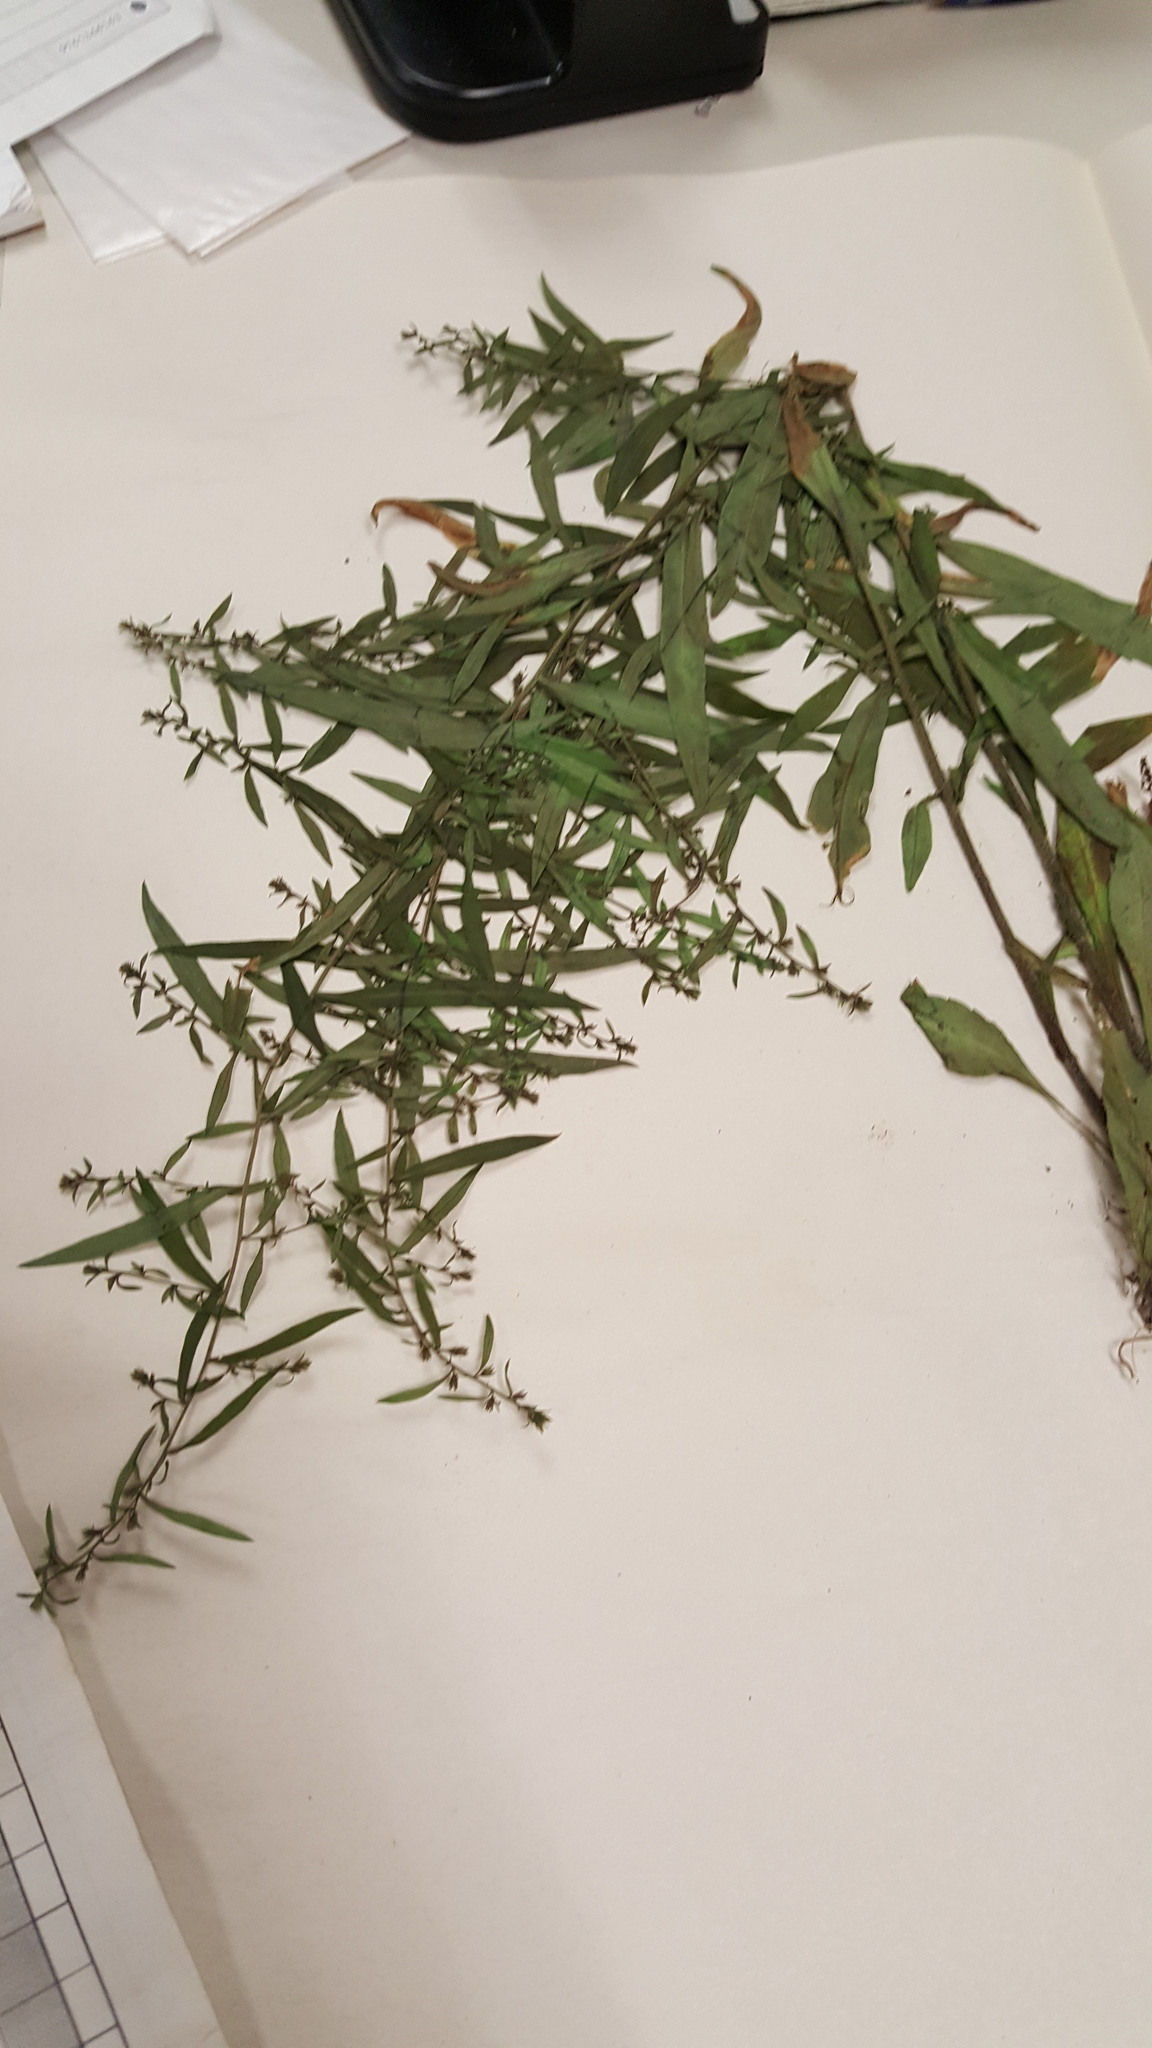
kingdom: Plantae
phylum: Tracheophyta
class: Magnoliopsida
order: Asterales
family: Asteraceae
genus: Symphyotrichum
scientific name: Symphyotrichum lateriflorum
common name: Calico aster
